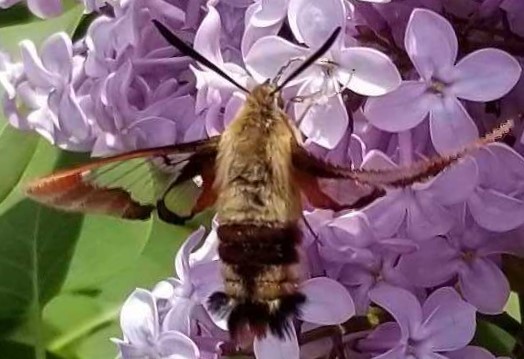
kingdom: Animalia
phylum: Arthropoda
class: Insecta
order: Lepidoptera
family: Sphingidae
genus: Hemaris
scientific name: Hemaris thysbe
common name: Common clear-wing
